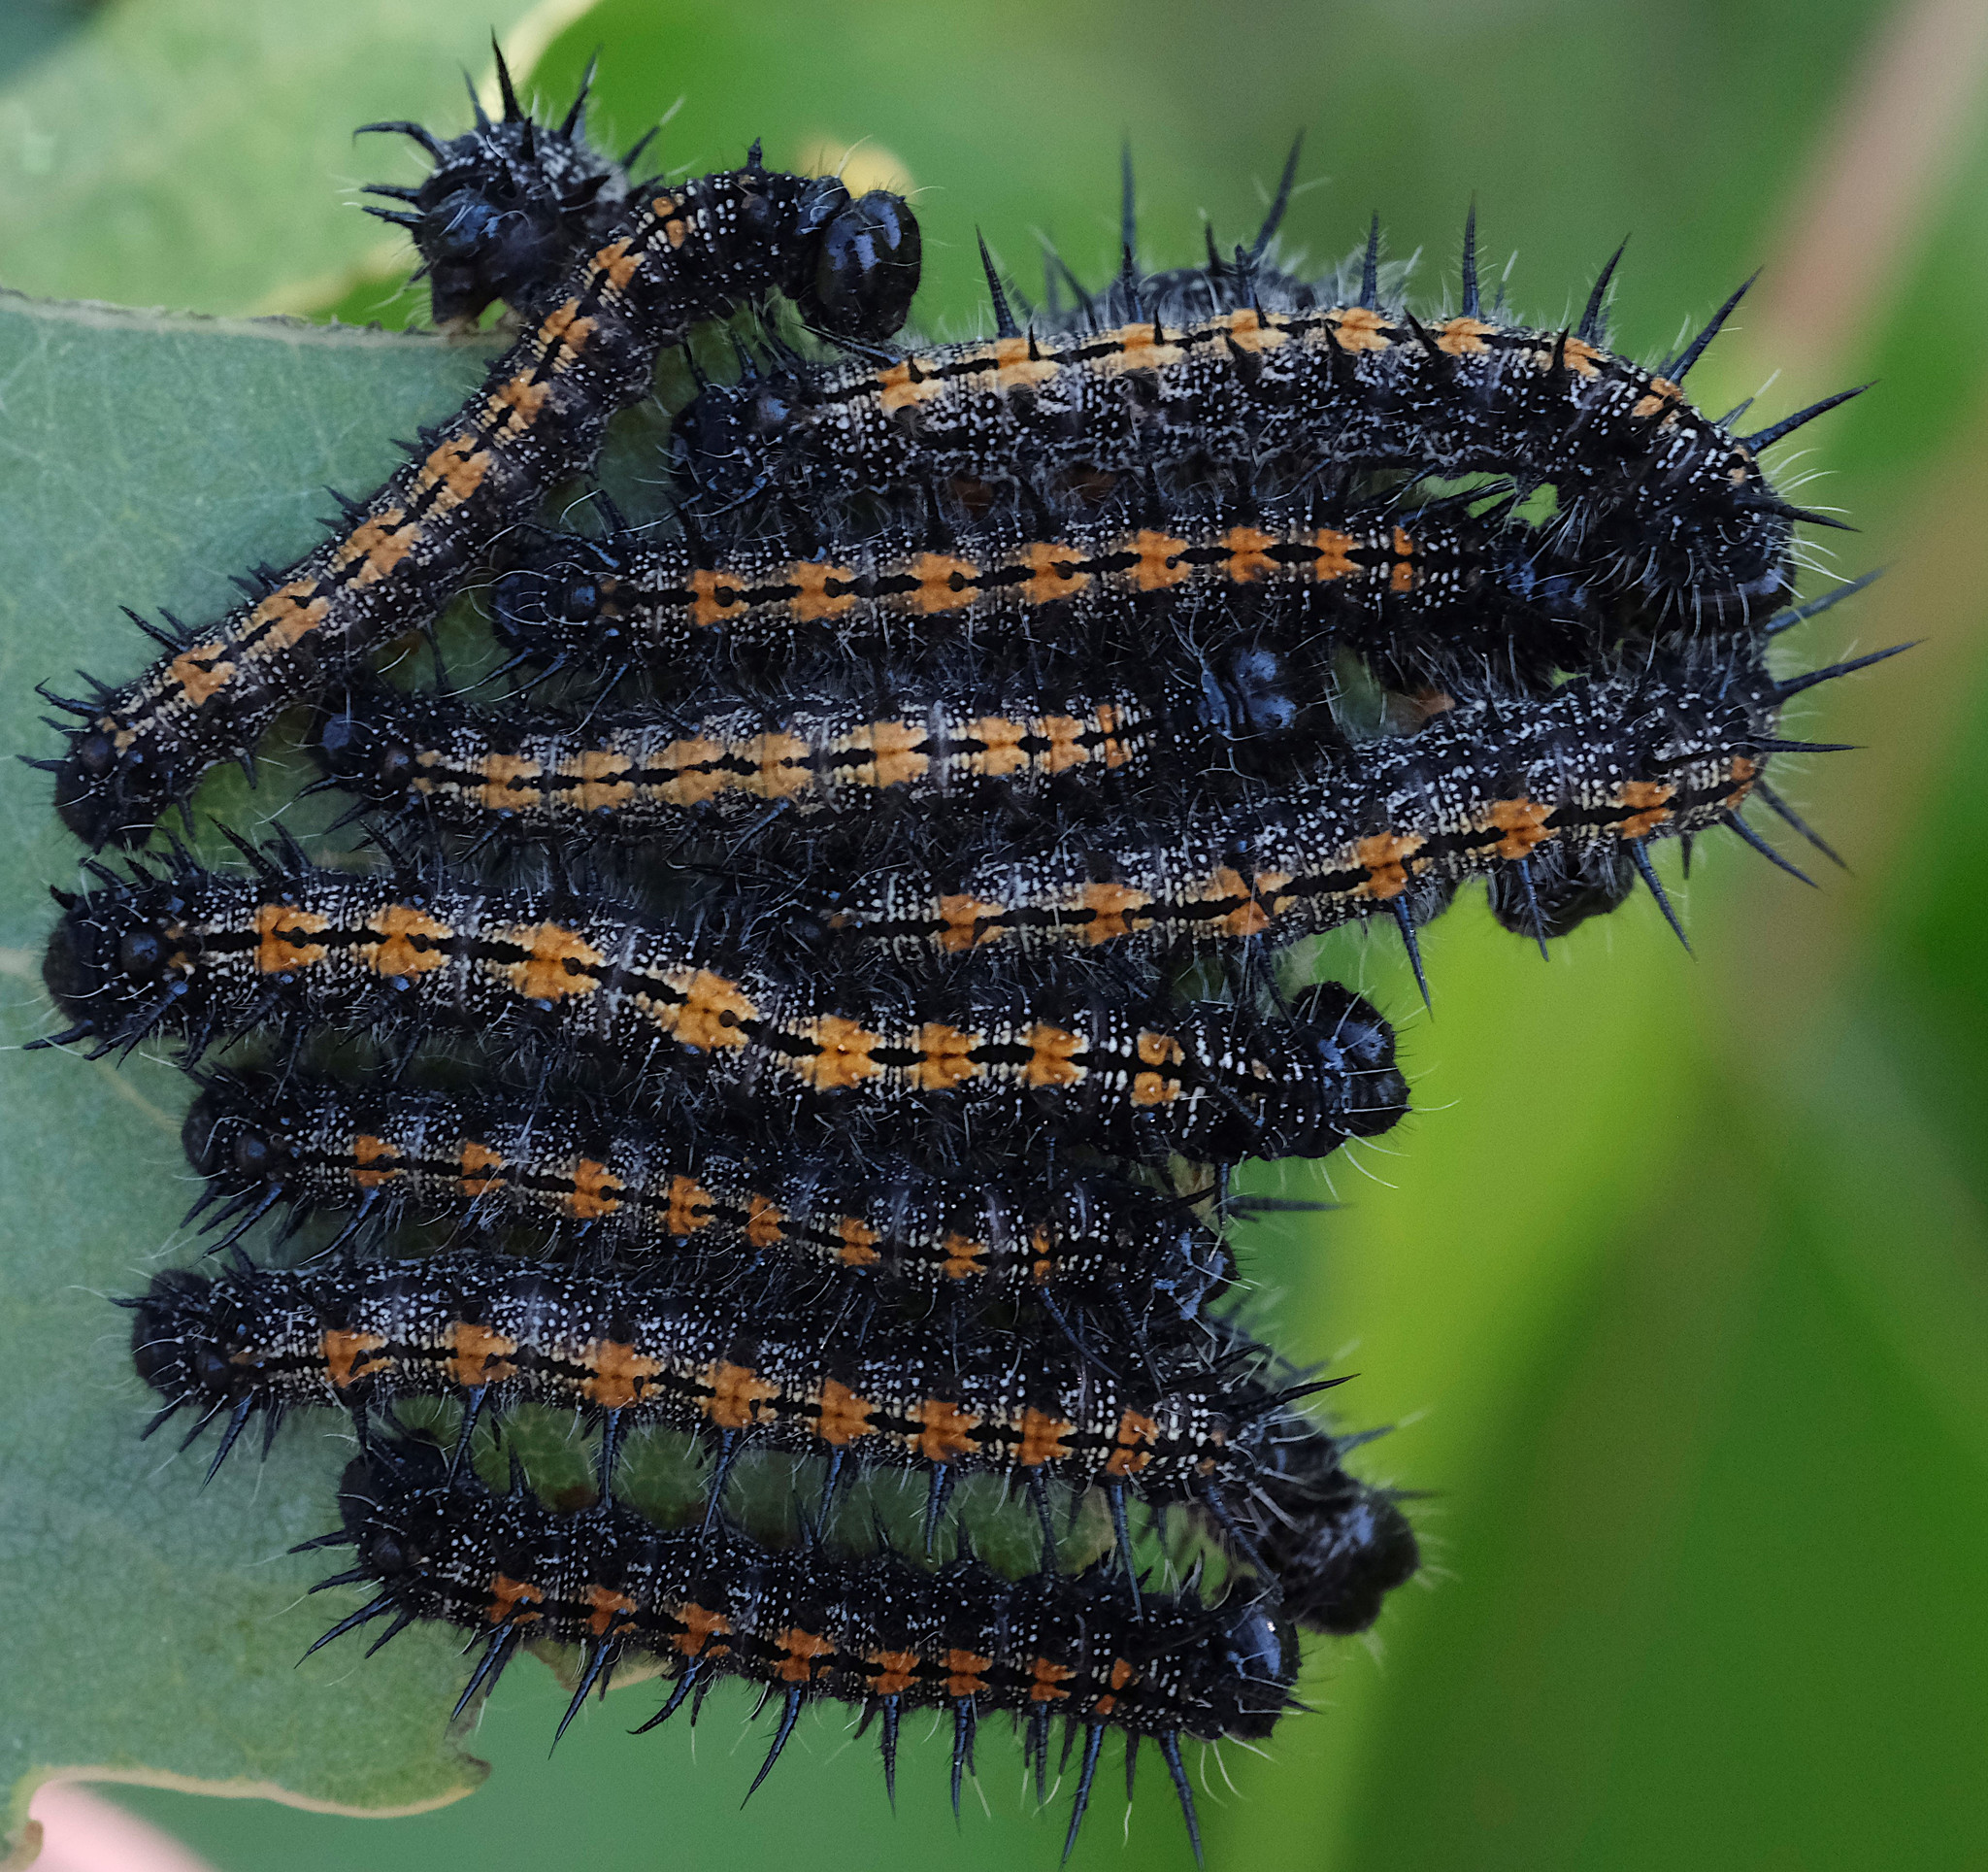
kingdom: Animalia
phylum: Arthropoda
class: Insecta
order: Lepidoptera
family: Nymphalidae
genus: Nymphalis
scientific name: Nymphalis antiopa
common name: Camberwell beauty
